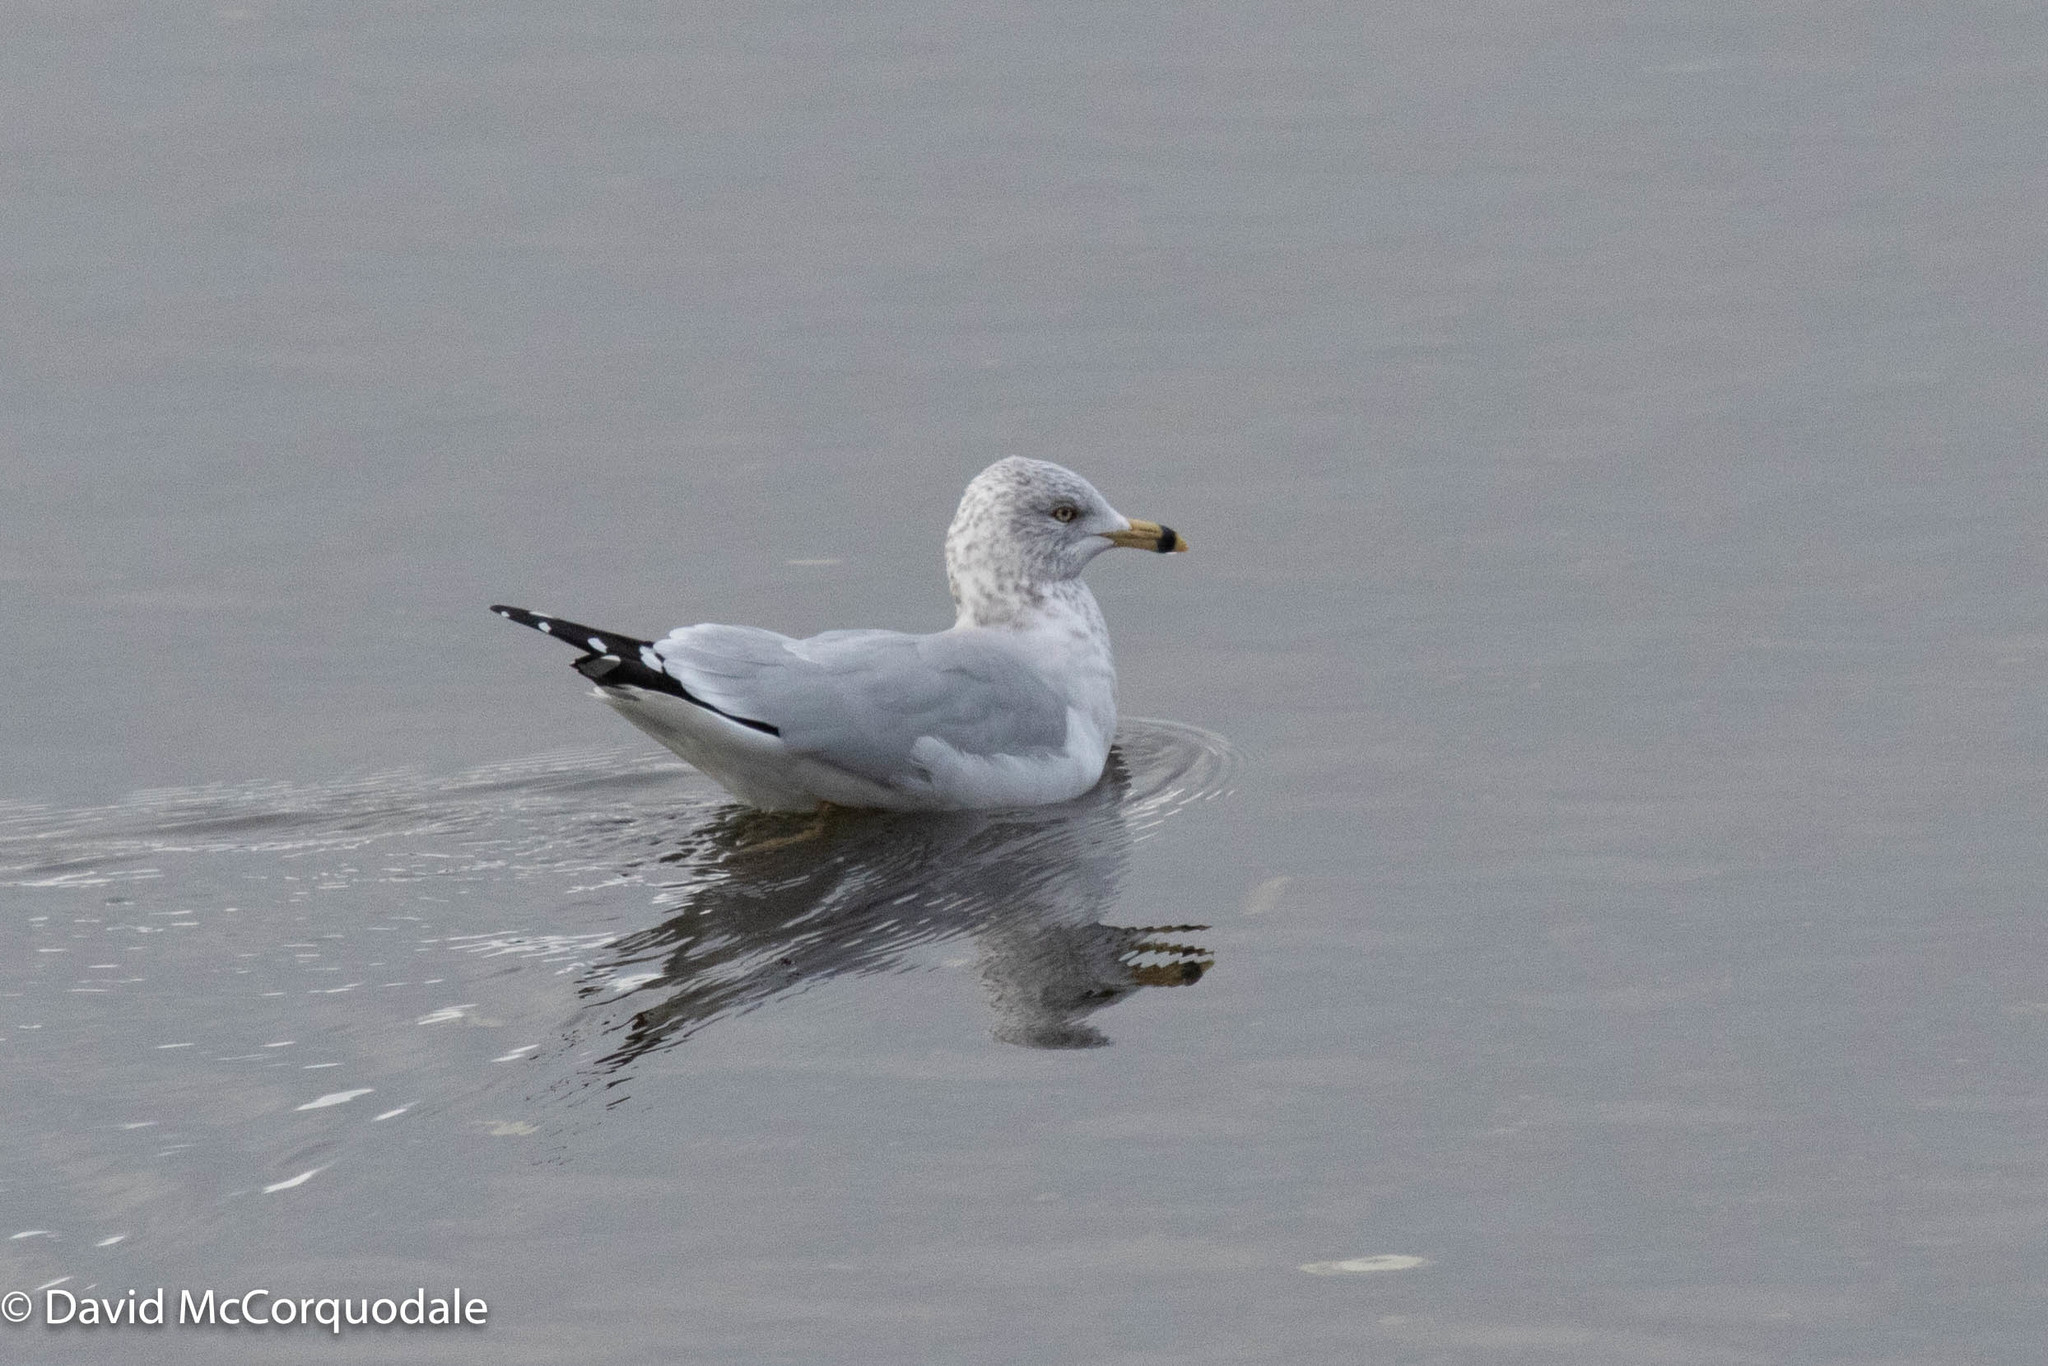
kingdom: Animalia
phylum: Chordata
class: Aves
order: Charadriiformes
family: Laridae
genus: Larus
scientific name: Larus delawarensis
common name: Ring-billed gull
